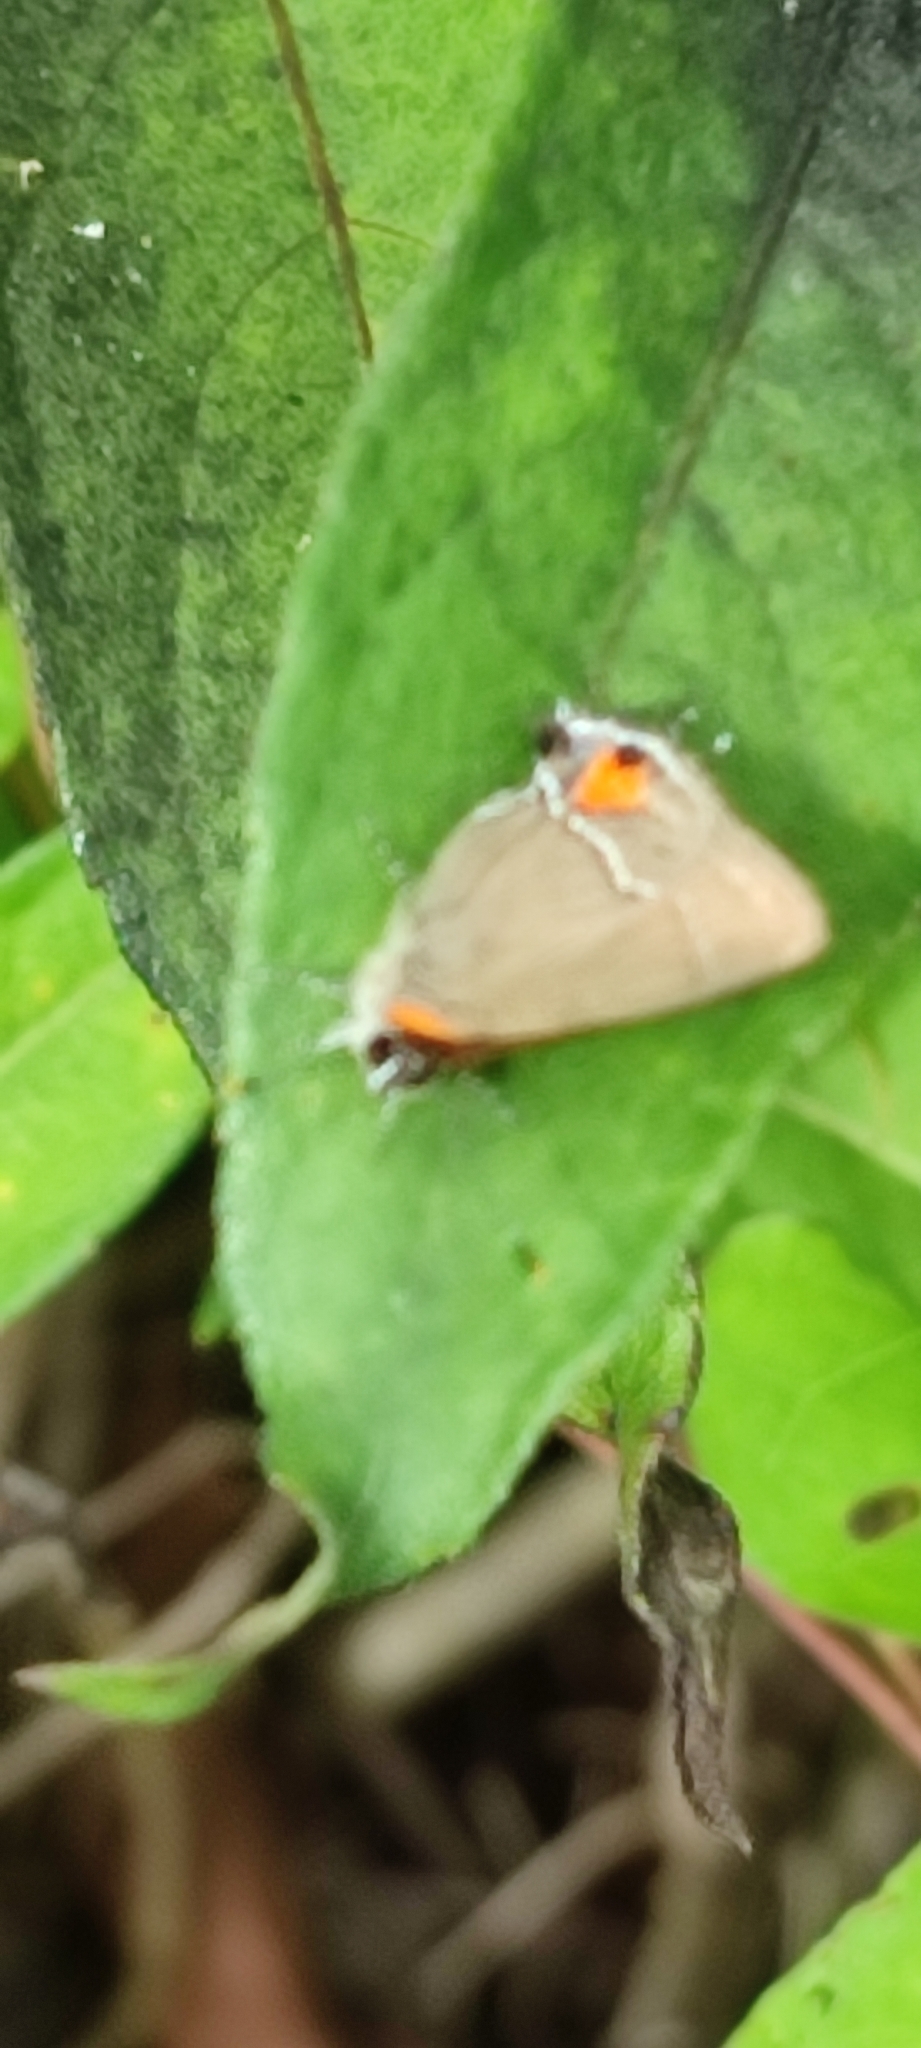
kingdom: Animalia
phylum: Arthropoda
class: Insecta
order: Lepidoptera
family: Lycaenidae
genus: Thecla
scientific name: Thecla angerona
